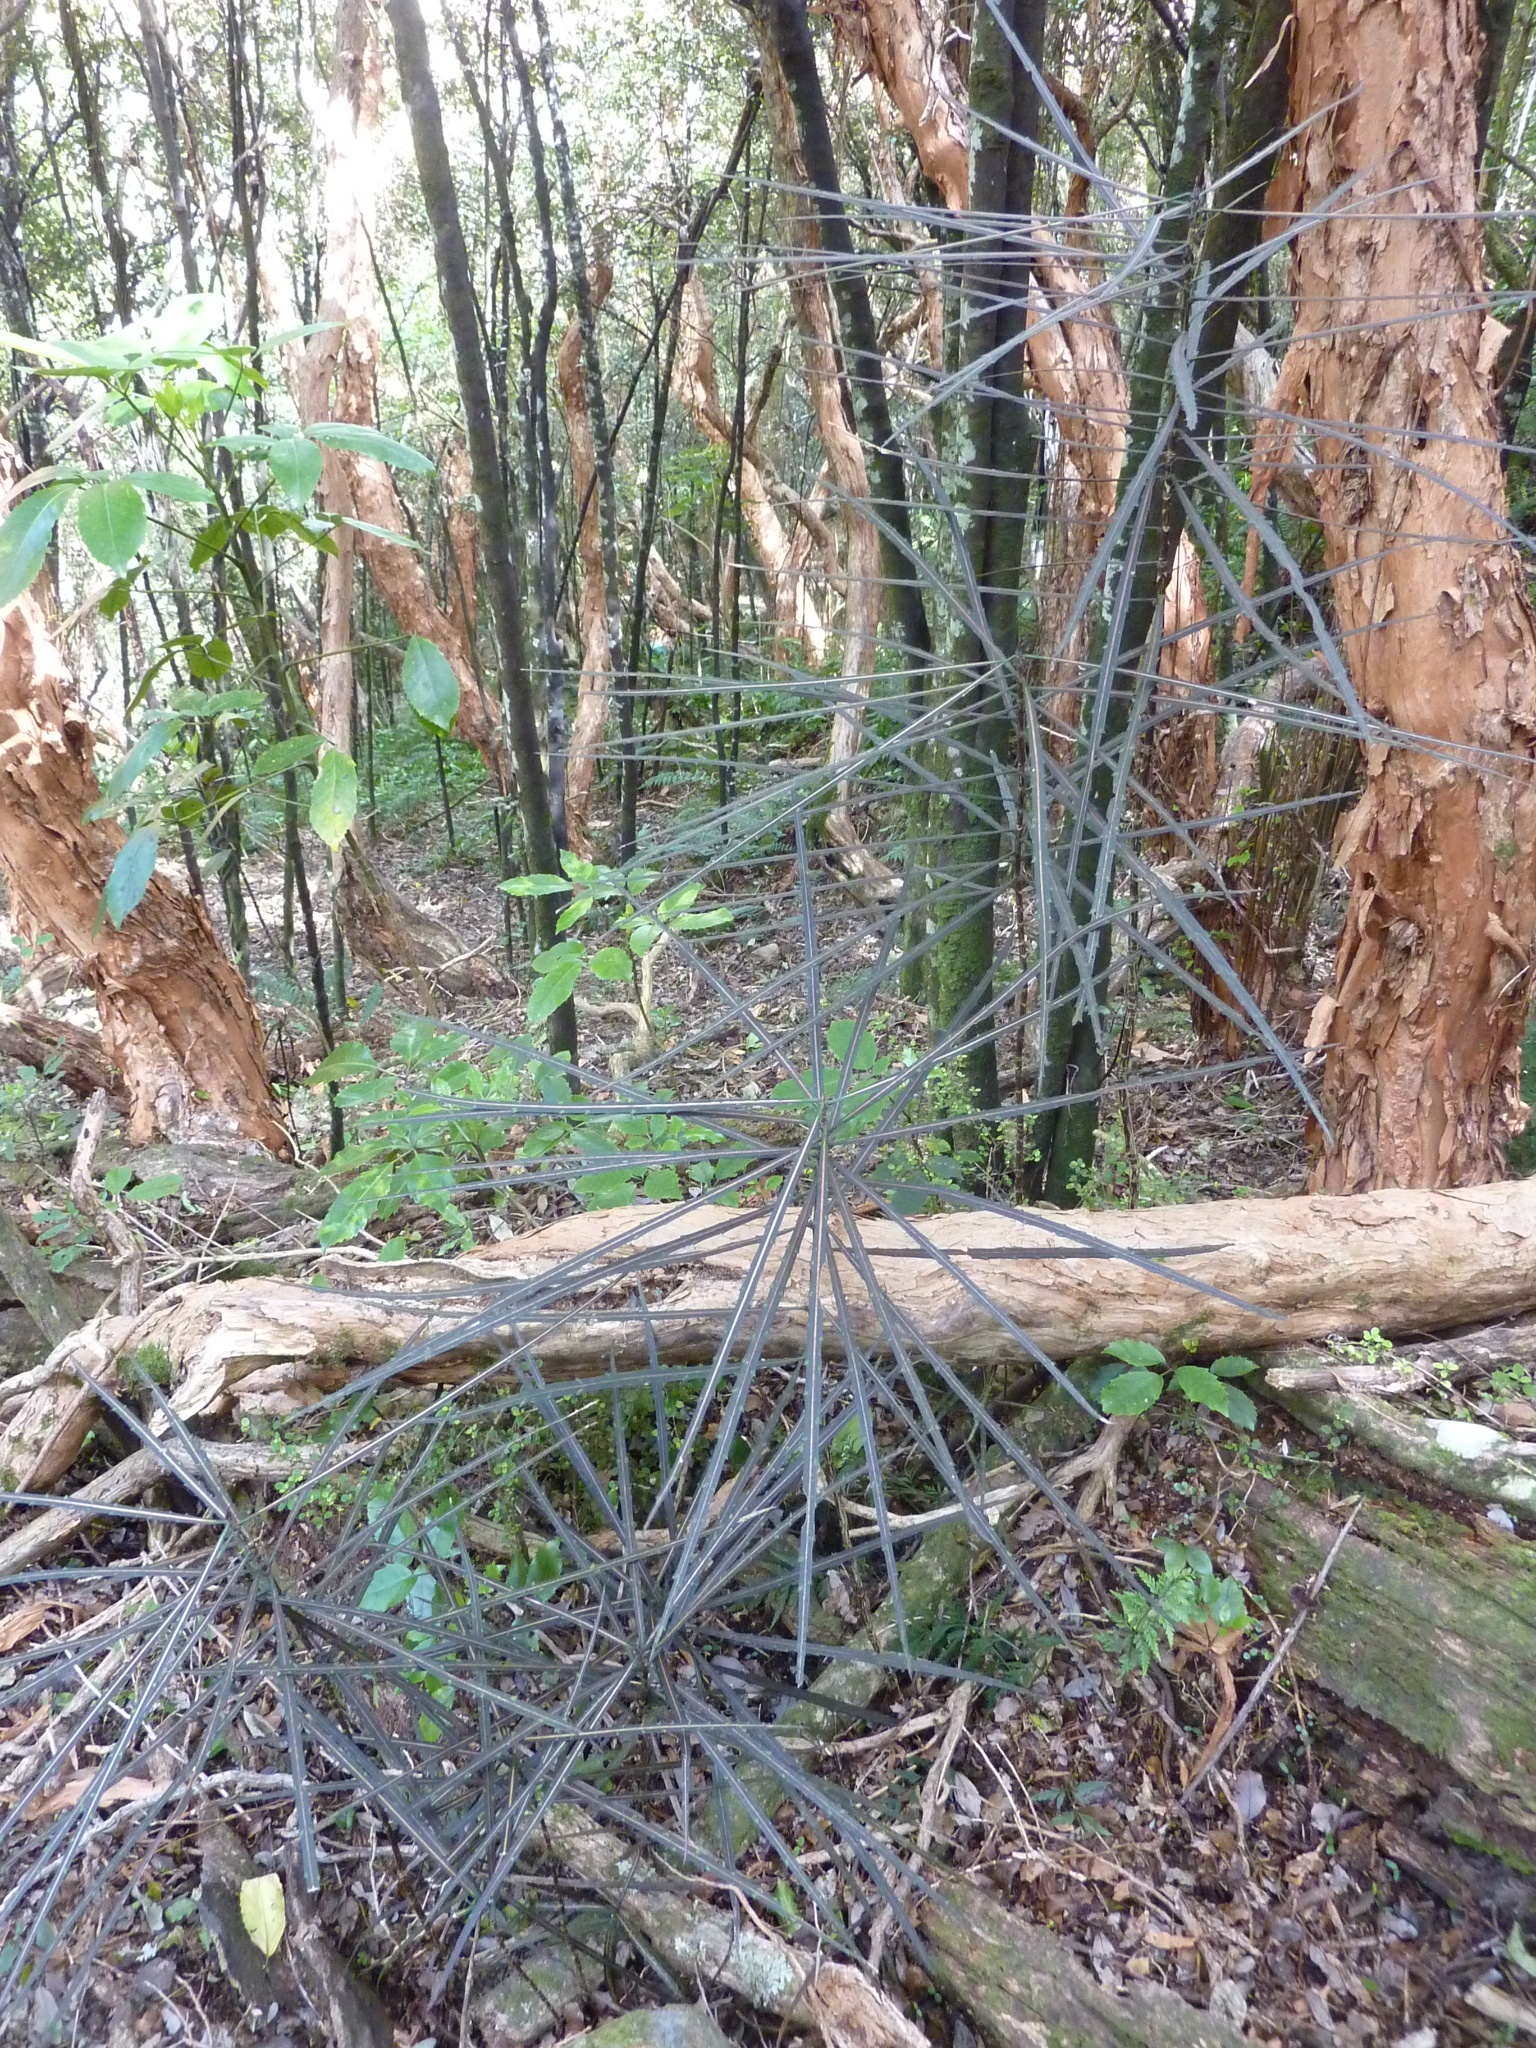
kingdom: Plantae
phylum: Tracheophyta
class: Magnoliopsida
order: Apiales
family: Araliaceae
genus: Pseudopanax
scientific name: Pseudopanax crassifolius
